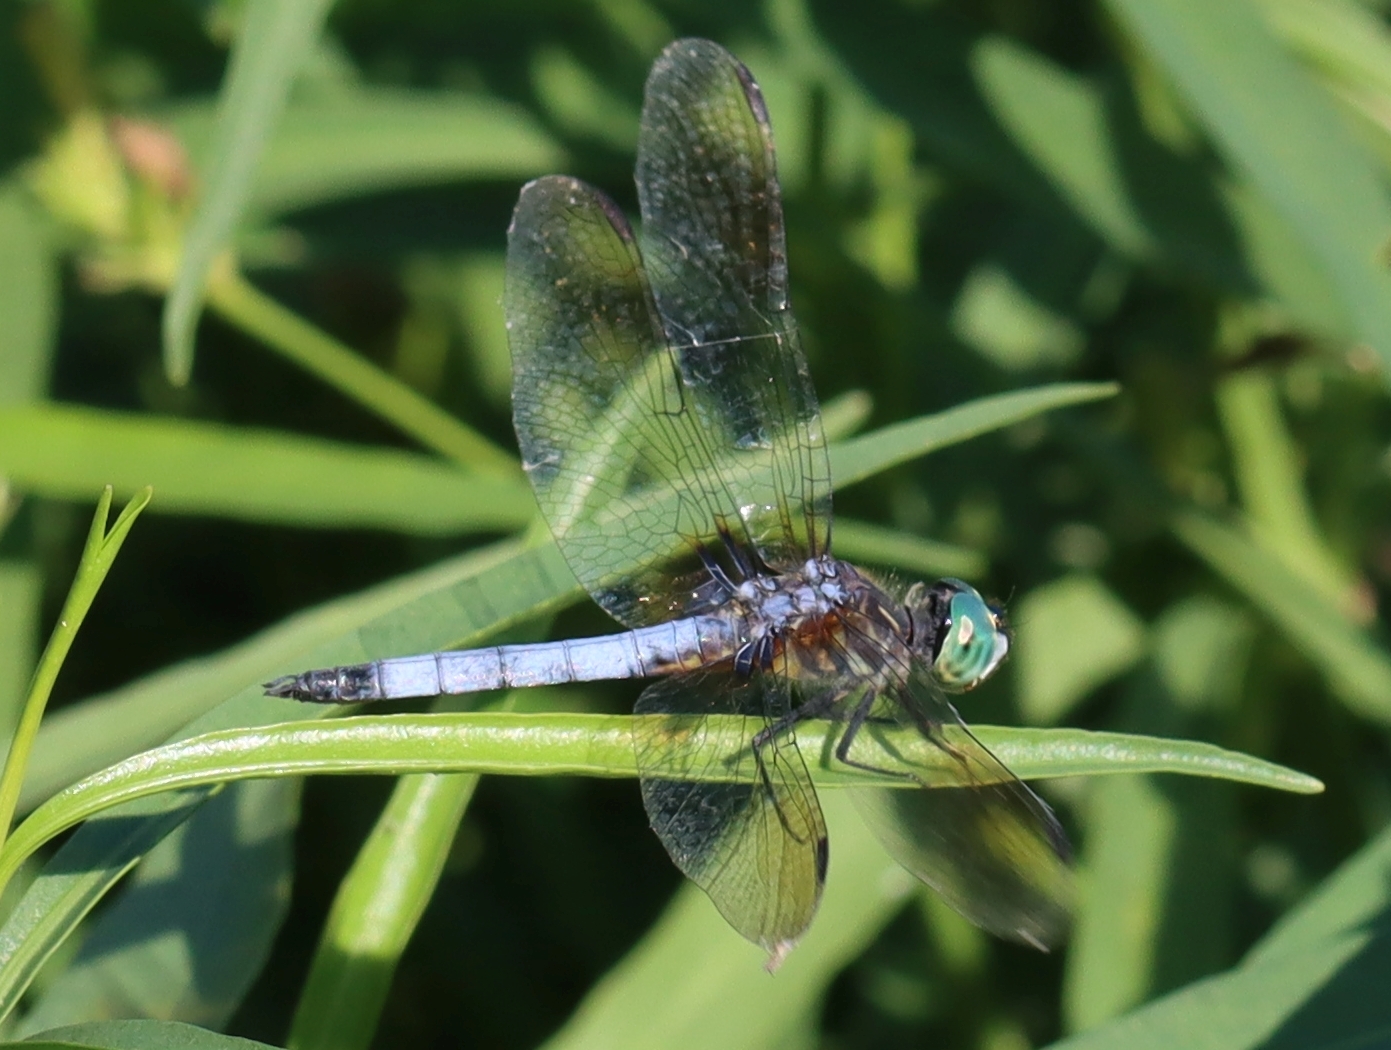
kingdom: Animalia
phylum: Arthropoda
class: Insecta
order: Odonata
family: Libellulidae
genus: Pachydiplax
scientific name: Pachydiplax longipennis
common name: Blue dasher
